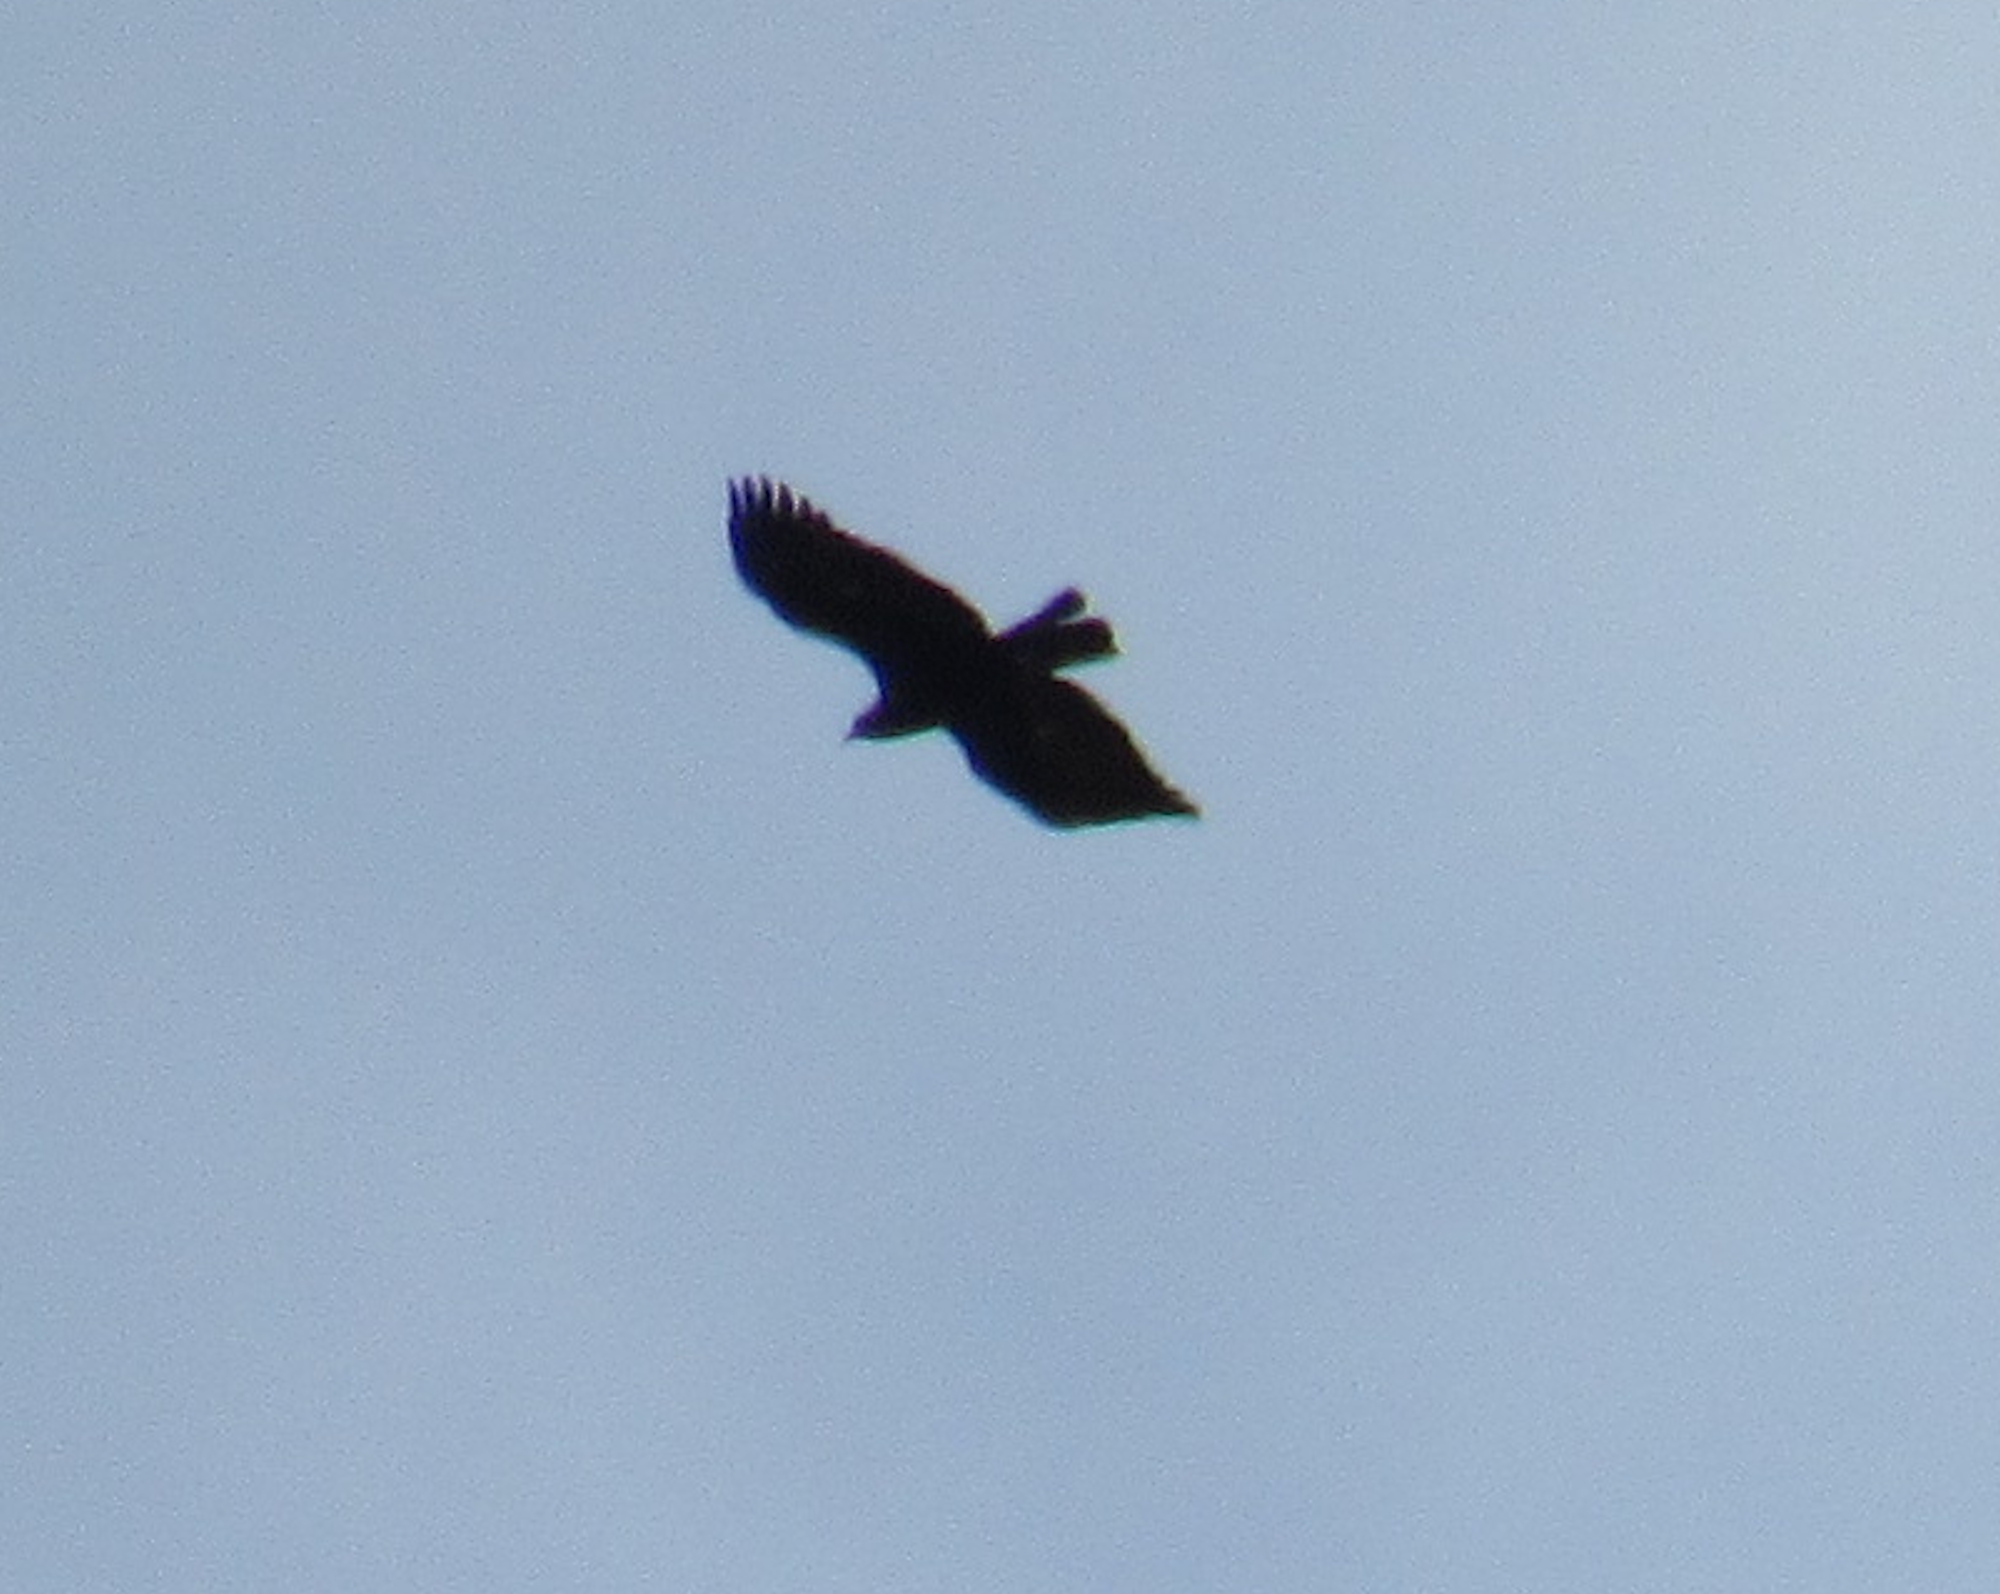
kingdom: Animalia
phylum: Chordata
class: Aves
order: Accipitriformes
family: Accipitridae
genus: Aquila
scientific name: Aquila chrysaetos
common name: Golden eagle
